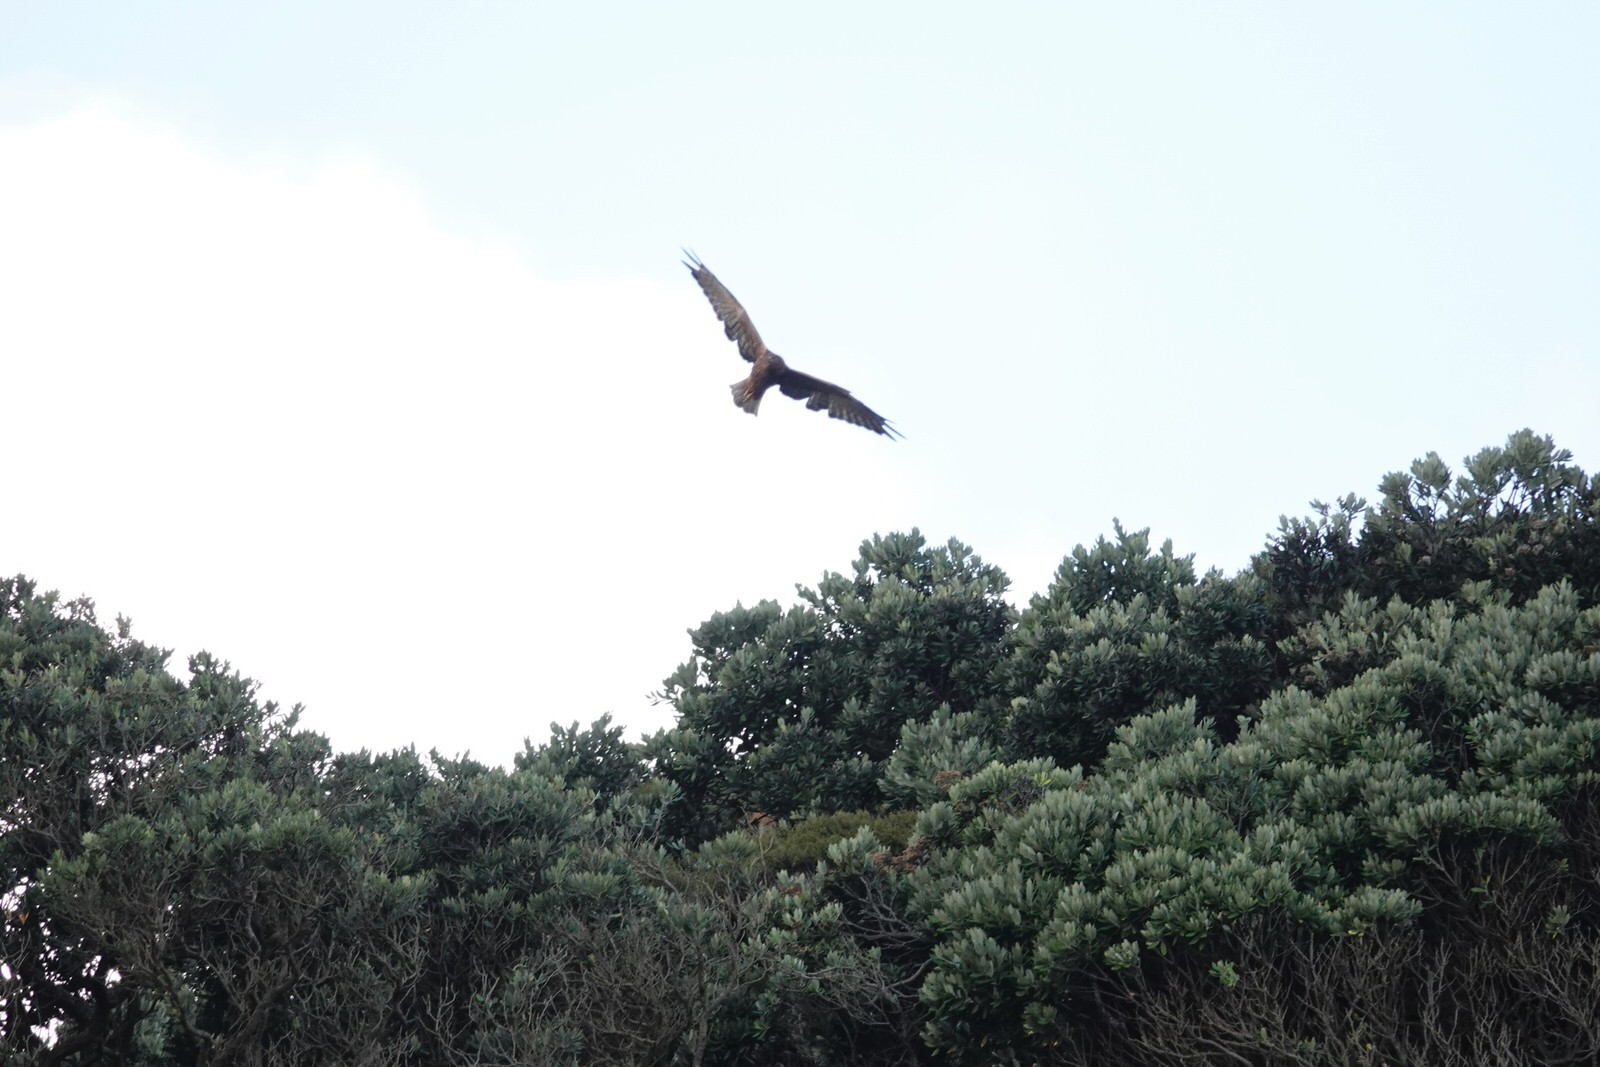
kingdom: Animalia
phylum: Chordata
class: Aves
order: Accipitriformes
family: Accipitridae
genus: Circus
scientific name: Circus approximans
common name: Swamp harrier
